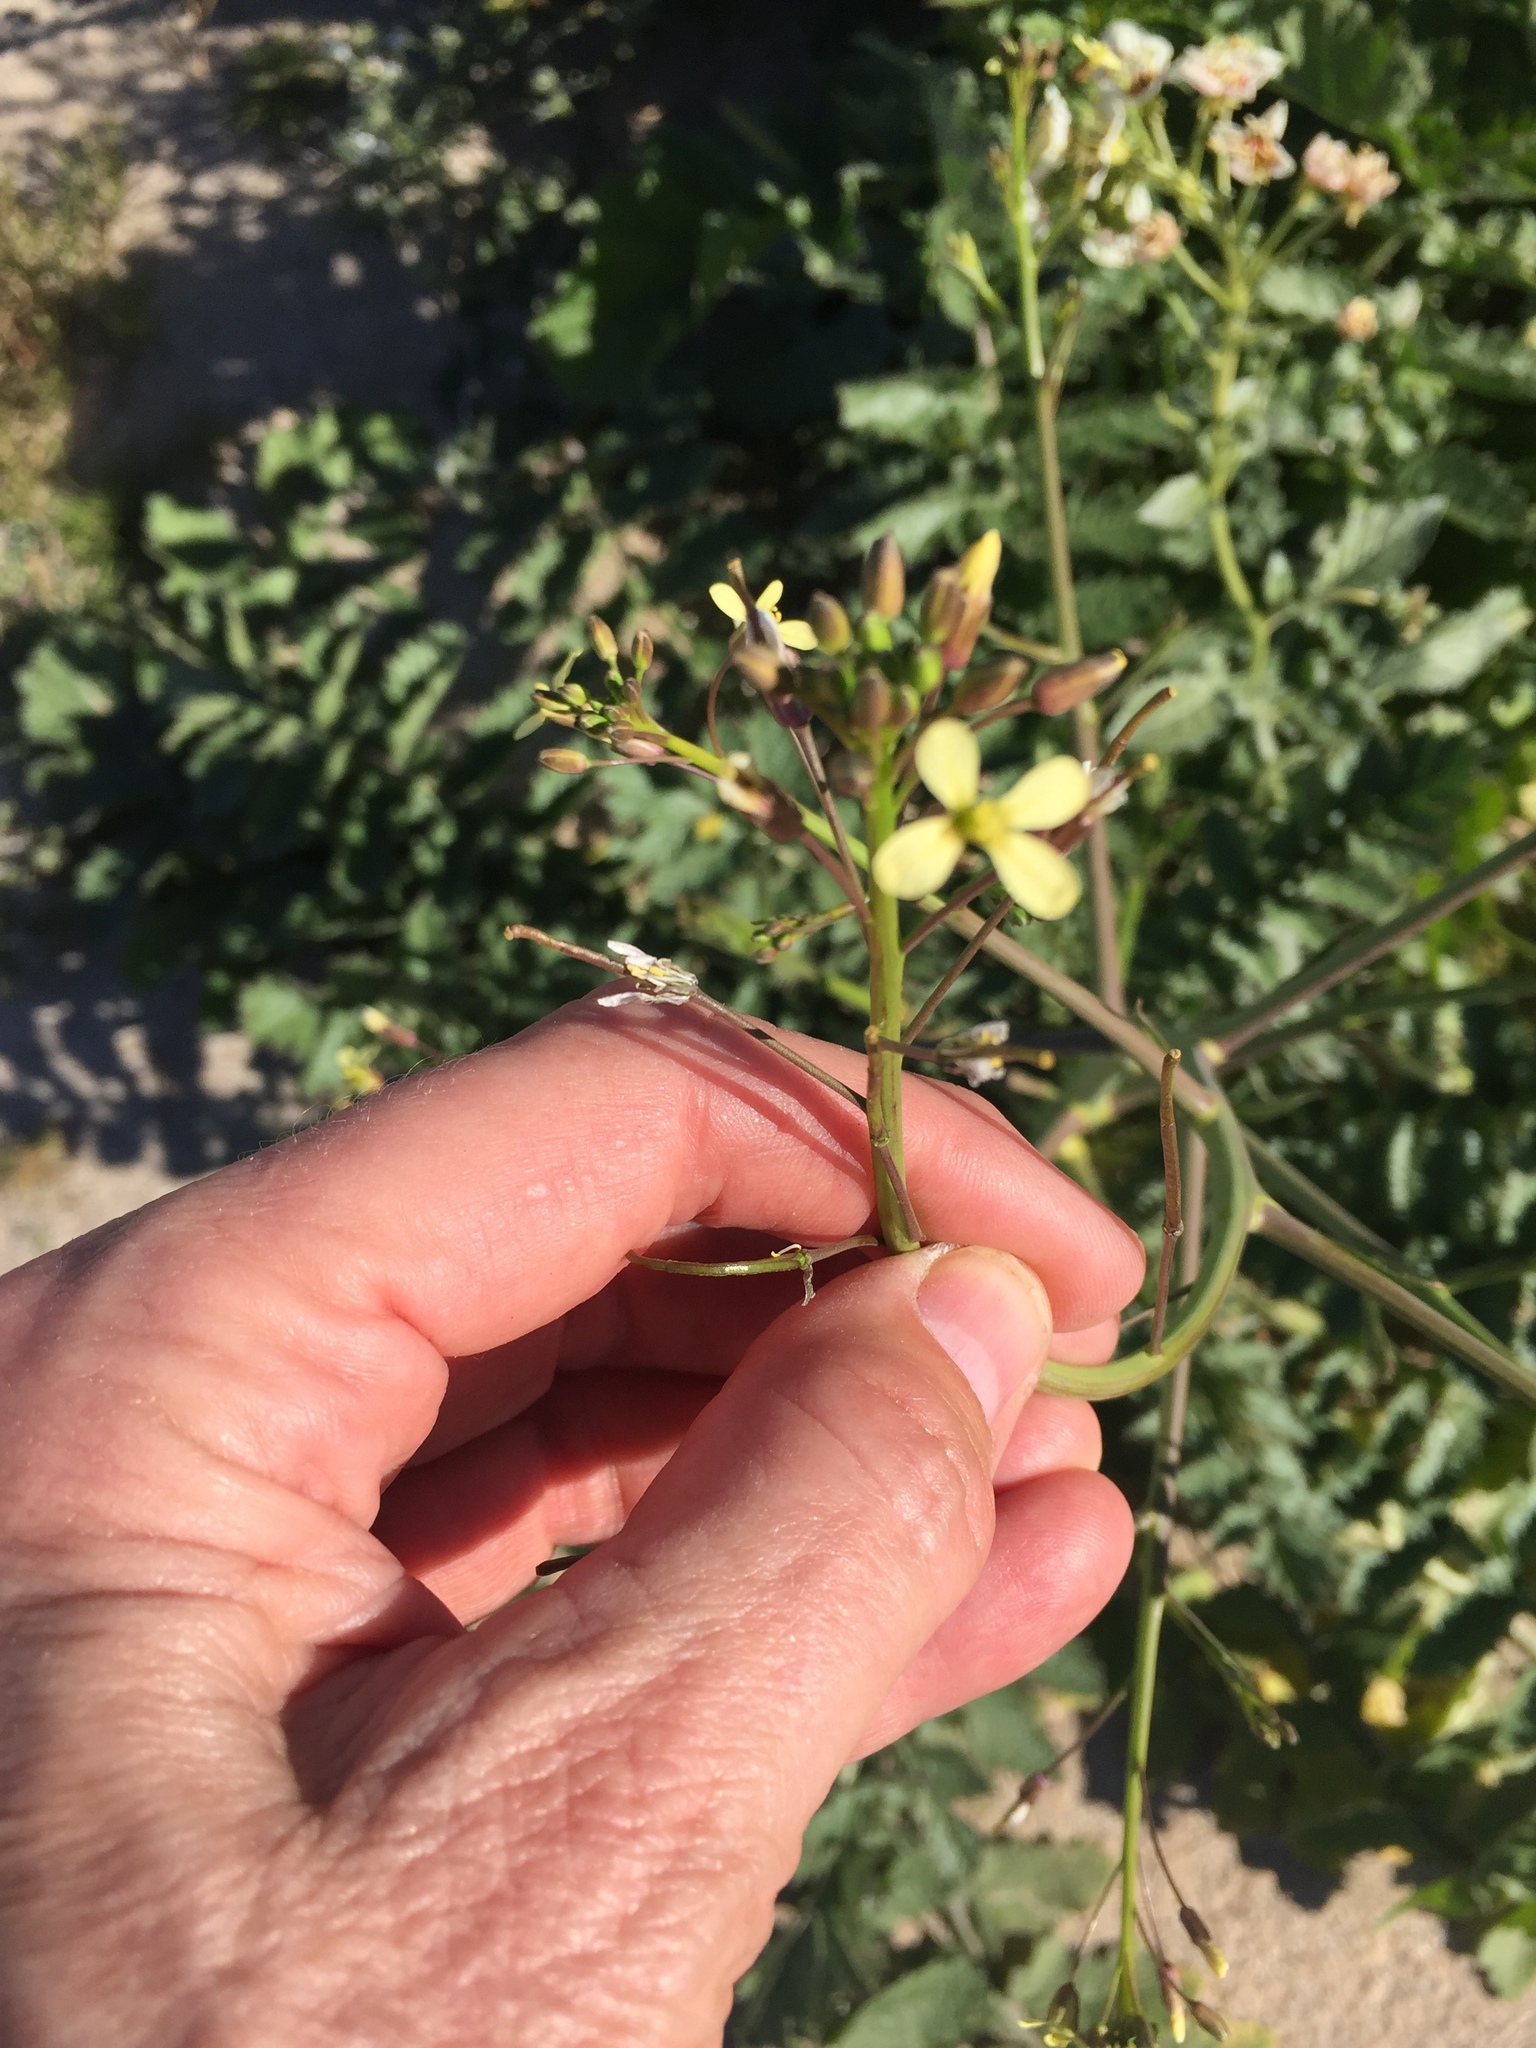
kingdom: Plantae
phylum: Tracheophyta
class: Magnoliopsida
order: Brassicales
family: Brassicaceae
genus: Brassica
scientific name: Brassica tournefortii
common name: Pale cabbage
